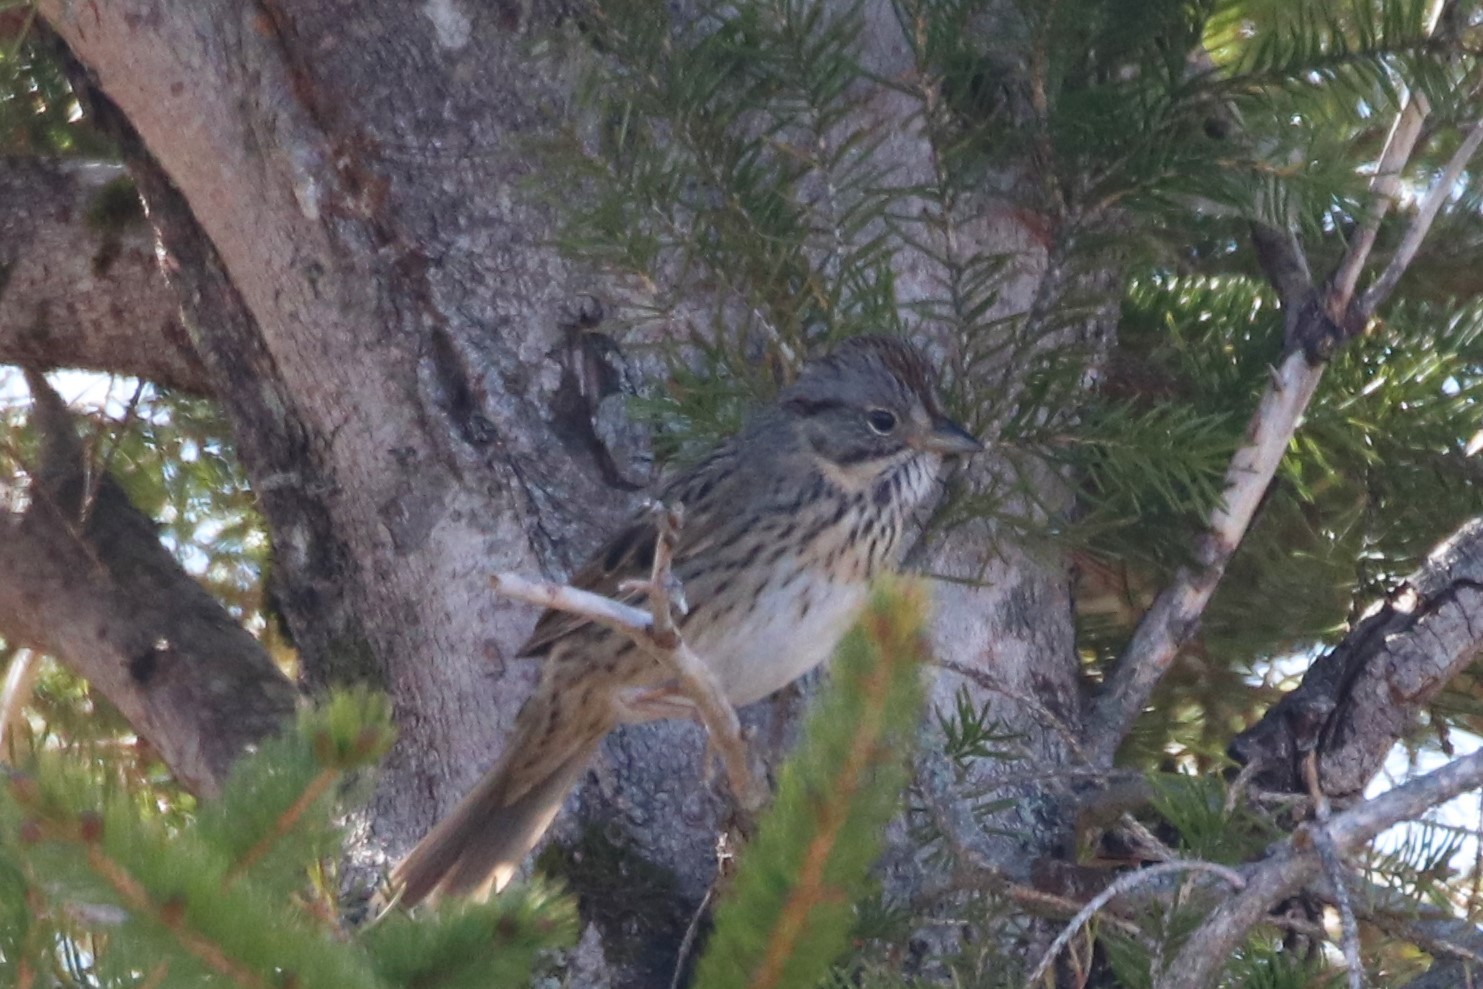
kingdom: Animalia
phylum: Chordata
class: Aves
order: Passeriformes
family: Passerellidae
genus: Melospiza
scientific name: Melospiza lincolnii
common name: Lincoln's sparrow
